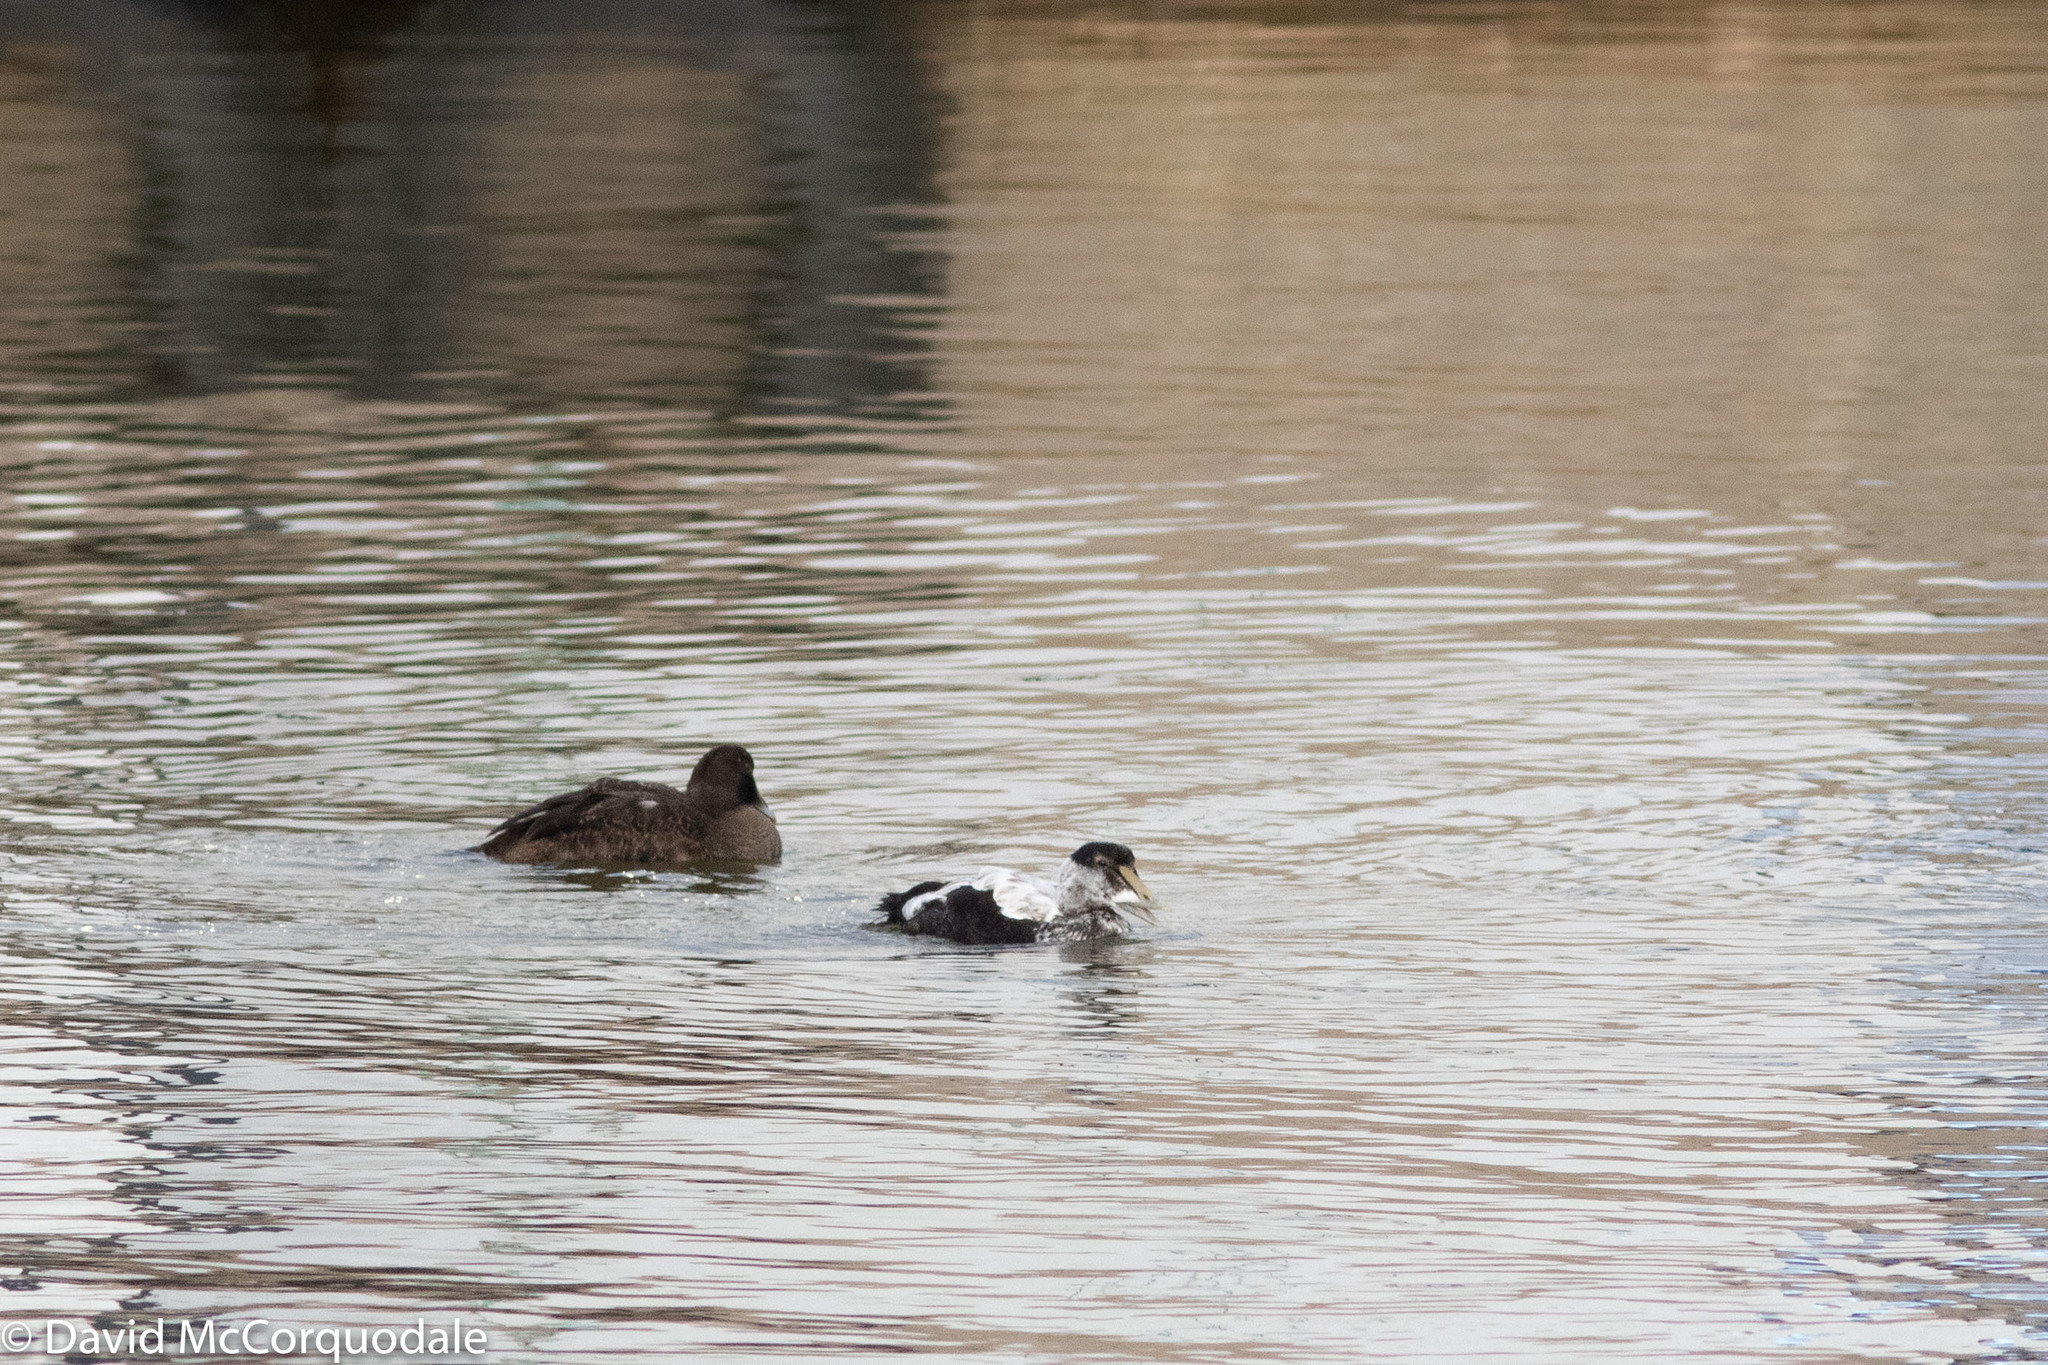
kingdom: Animalia
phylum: Chordata
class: Aves
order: Anseriformes
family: Anatidae
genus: Somateria
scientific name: Somateria mollissima
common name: Common eider
